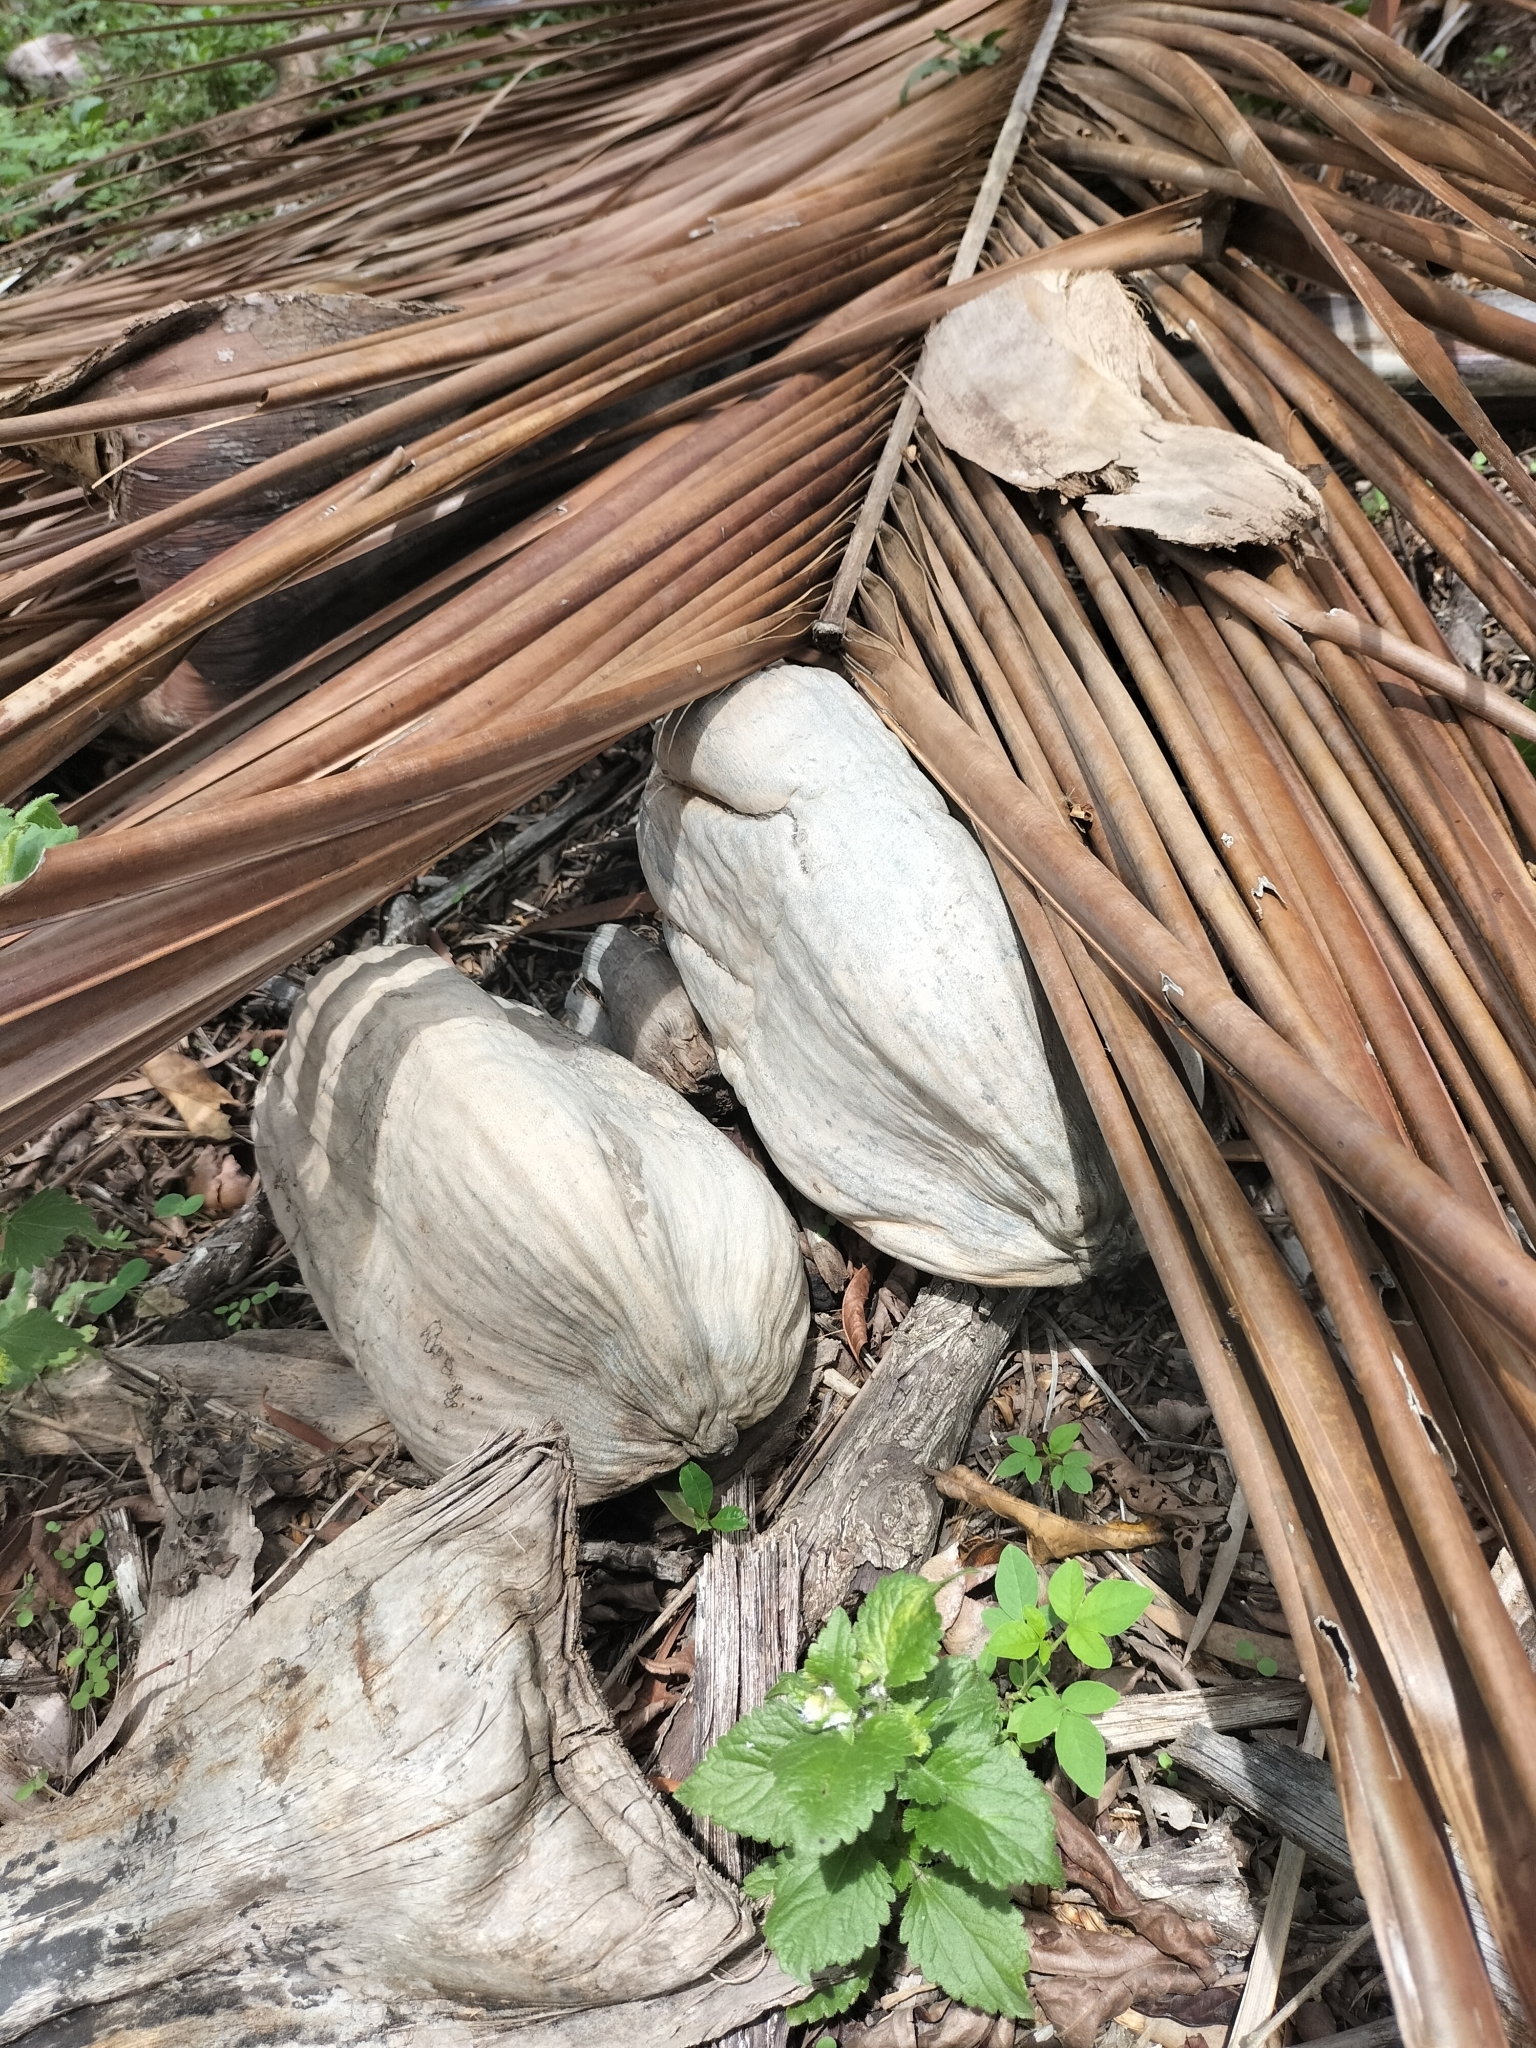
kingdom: Plantae
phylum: Tracheophyta
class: Liliopsida
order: Arecales
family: Arecaceae
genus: Cocos
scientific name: Cocos nucifera
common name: Coconut palm
